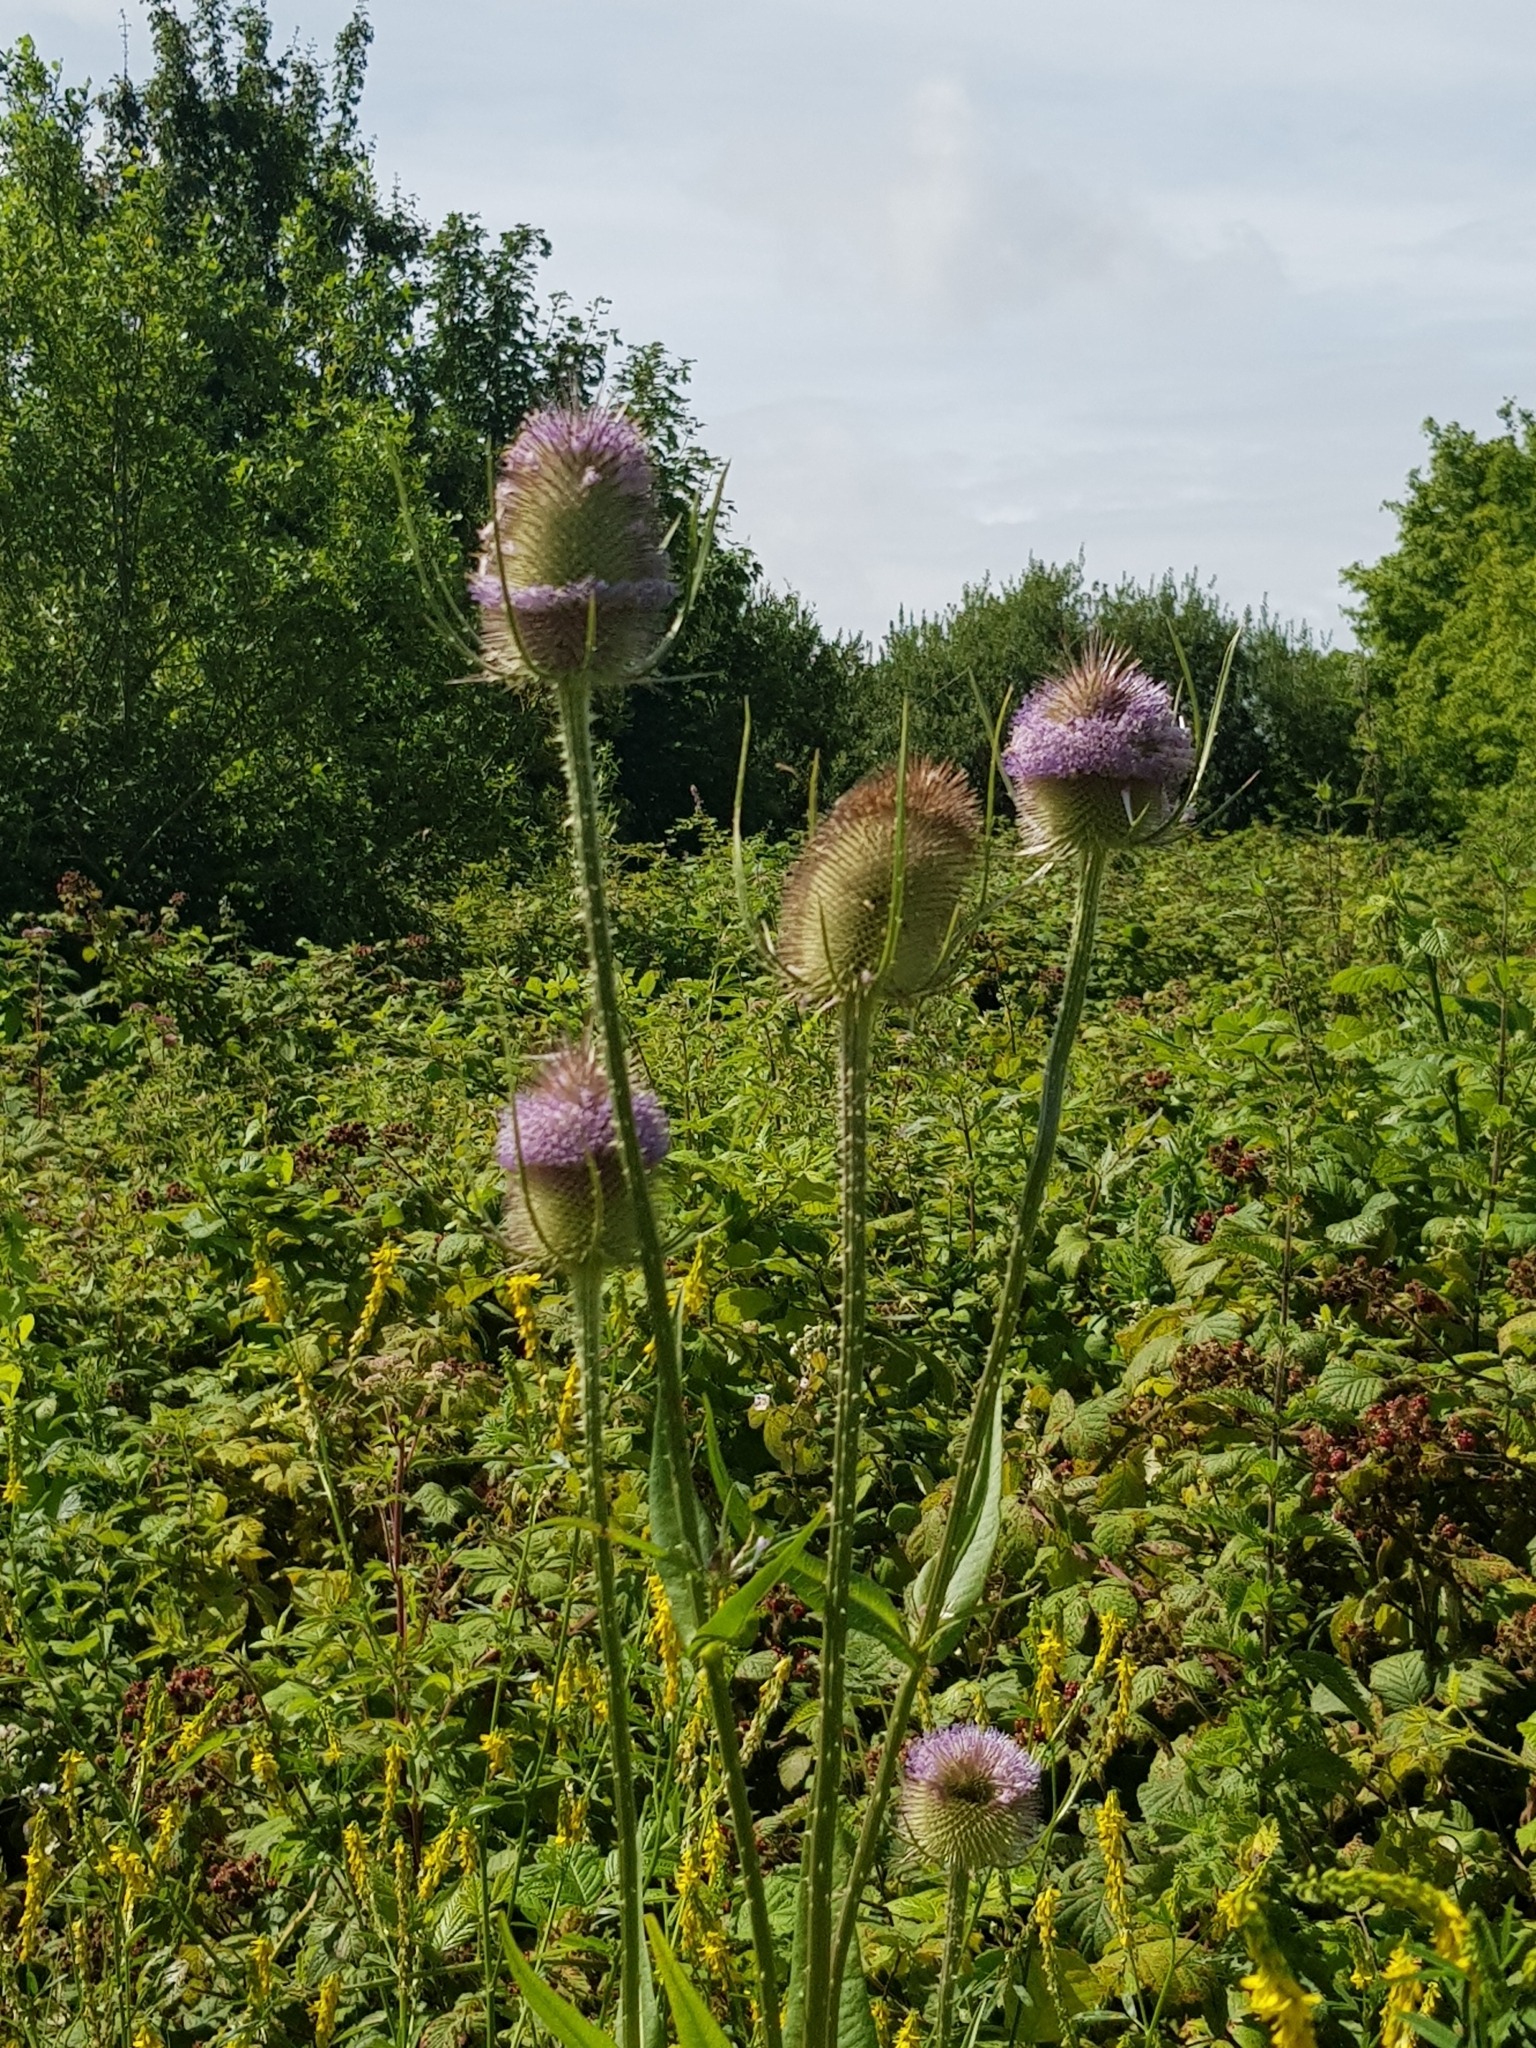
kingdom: Plantae
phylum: Tracheophyta
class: Magnoliopsida
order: Dipsacales
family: Caprifoliaceae
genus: Dipsacus
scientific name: Dipsacus fullonum
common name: Teasel
